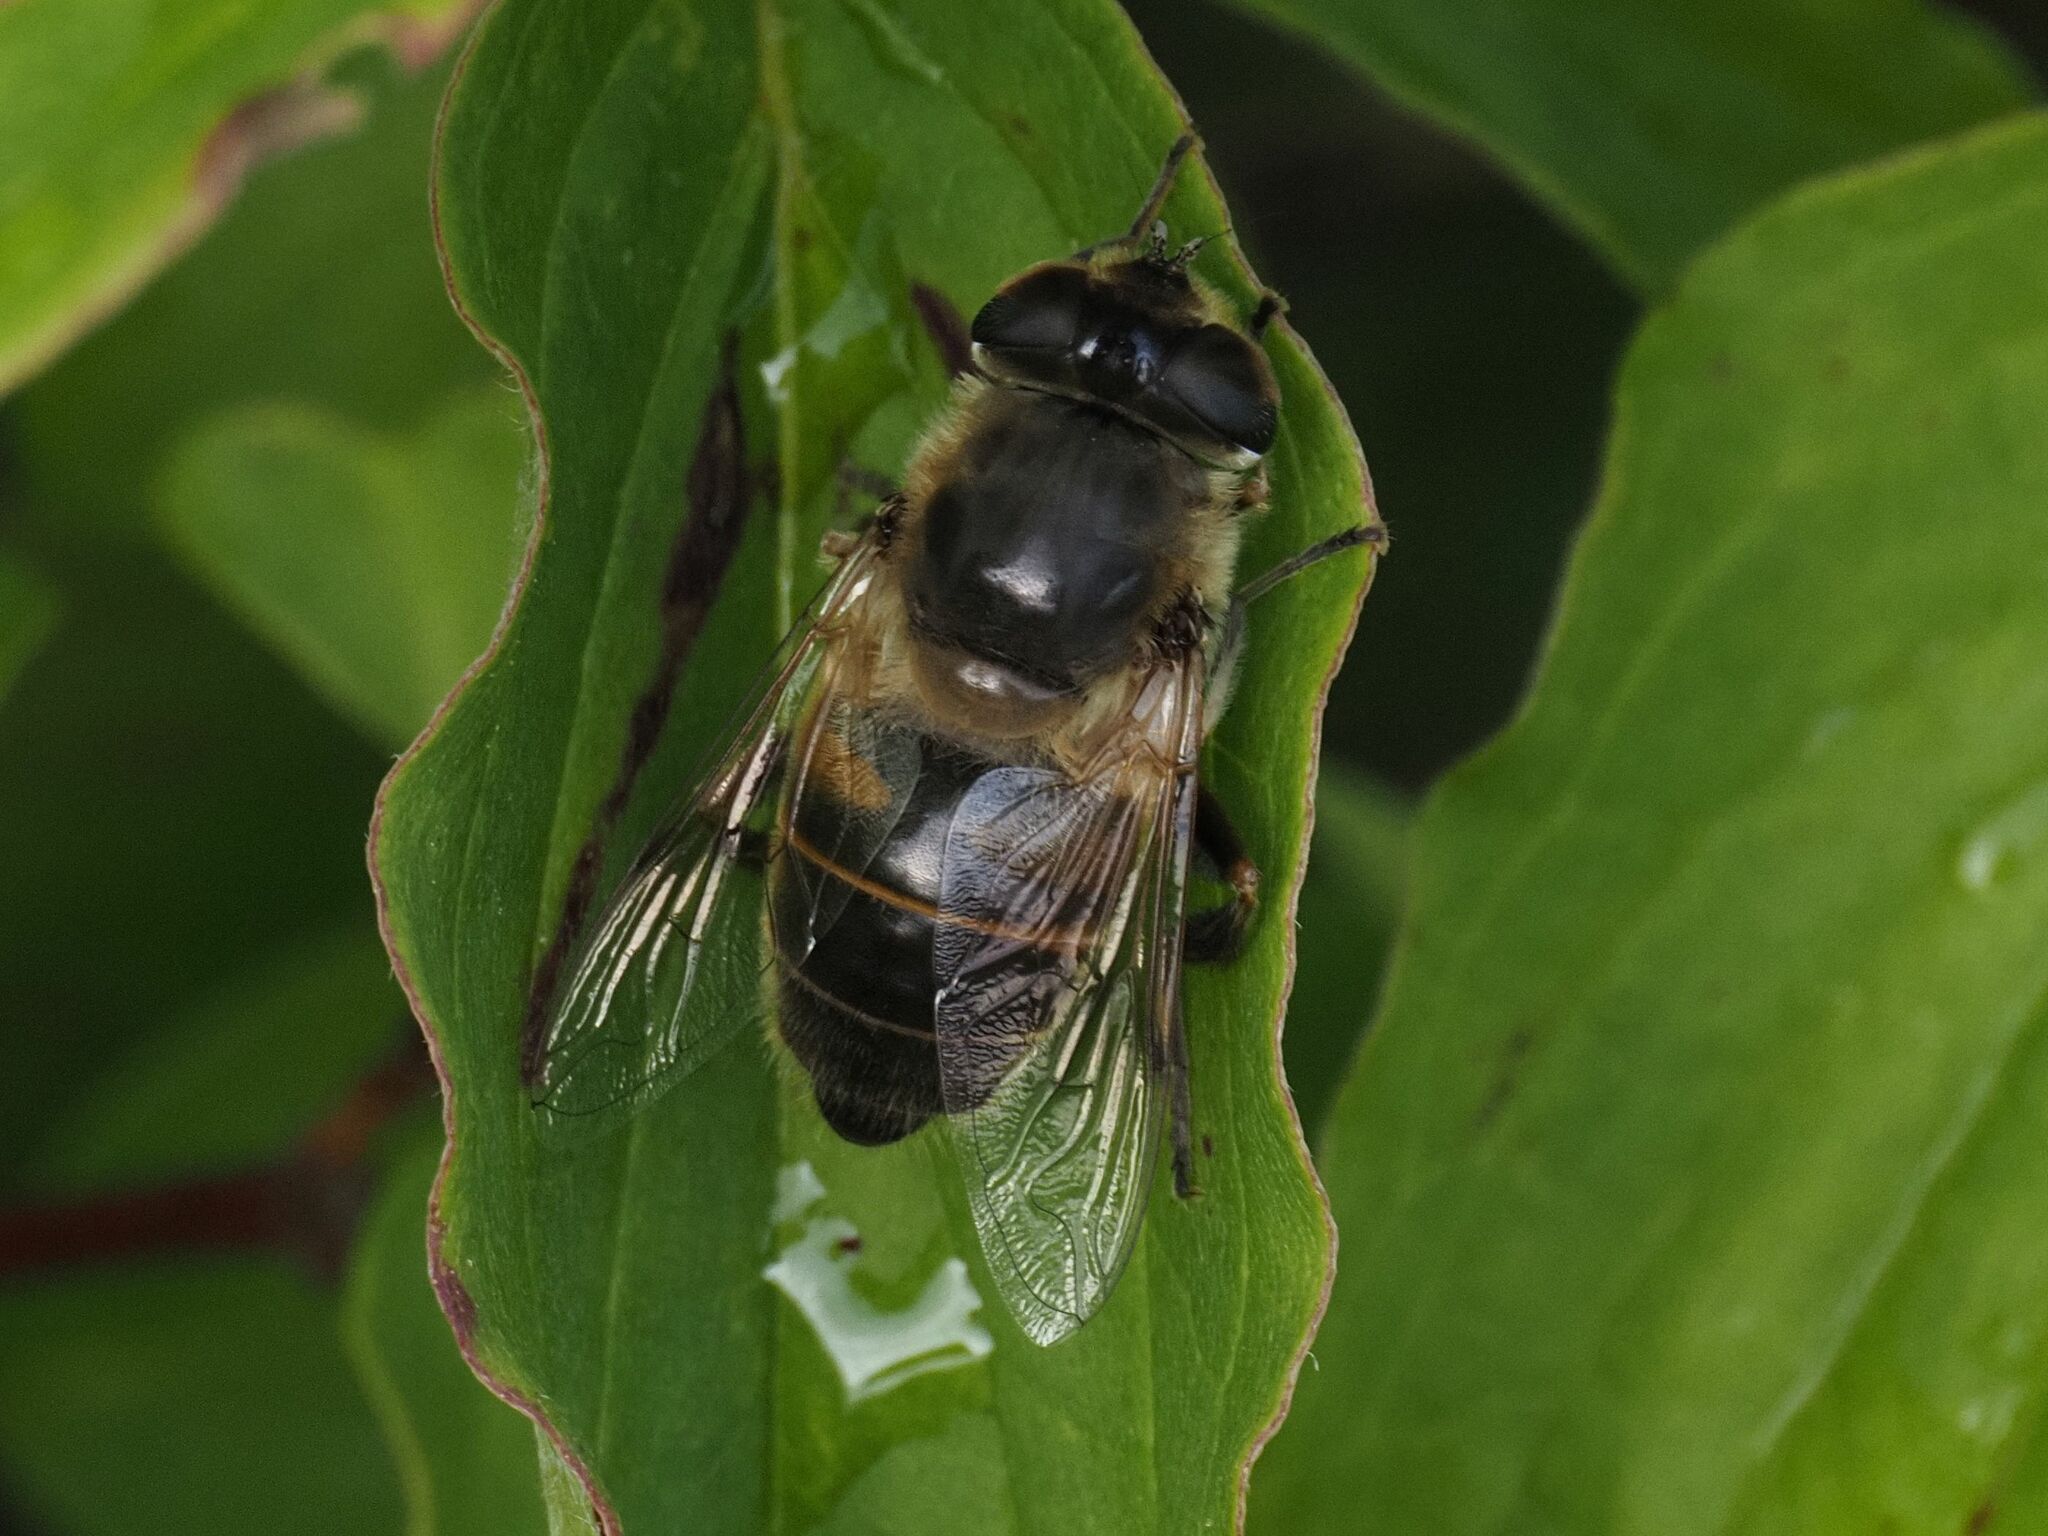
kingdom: Animalia
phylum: Arthropoda
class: Insecta
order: Diptera
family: Syrphidae
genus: Eristalis
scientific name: Eristalis tenax
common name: Drone fly
